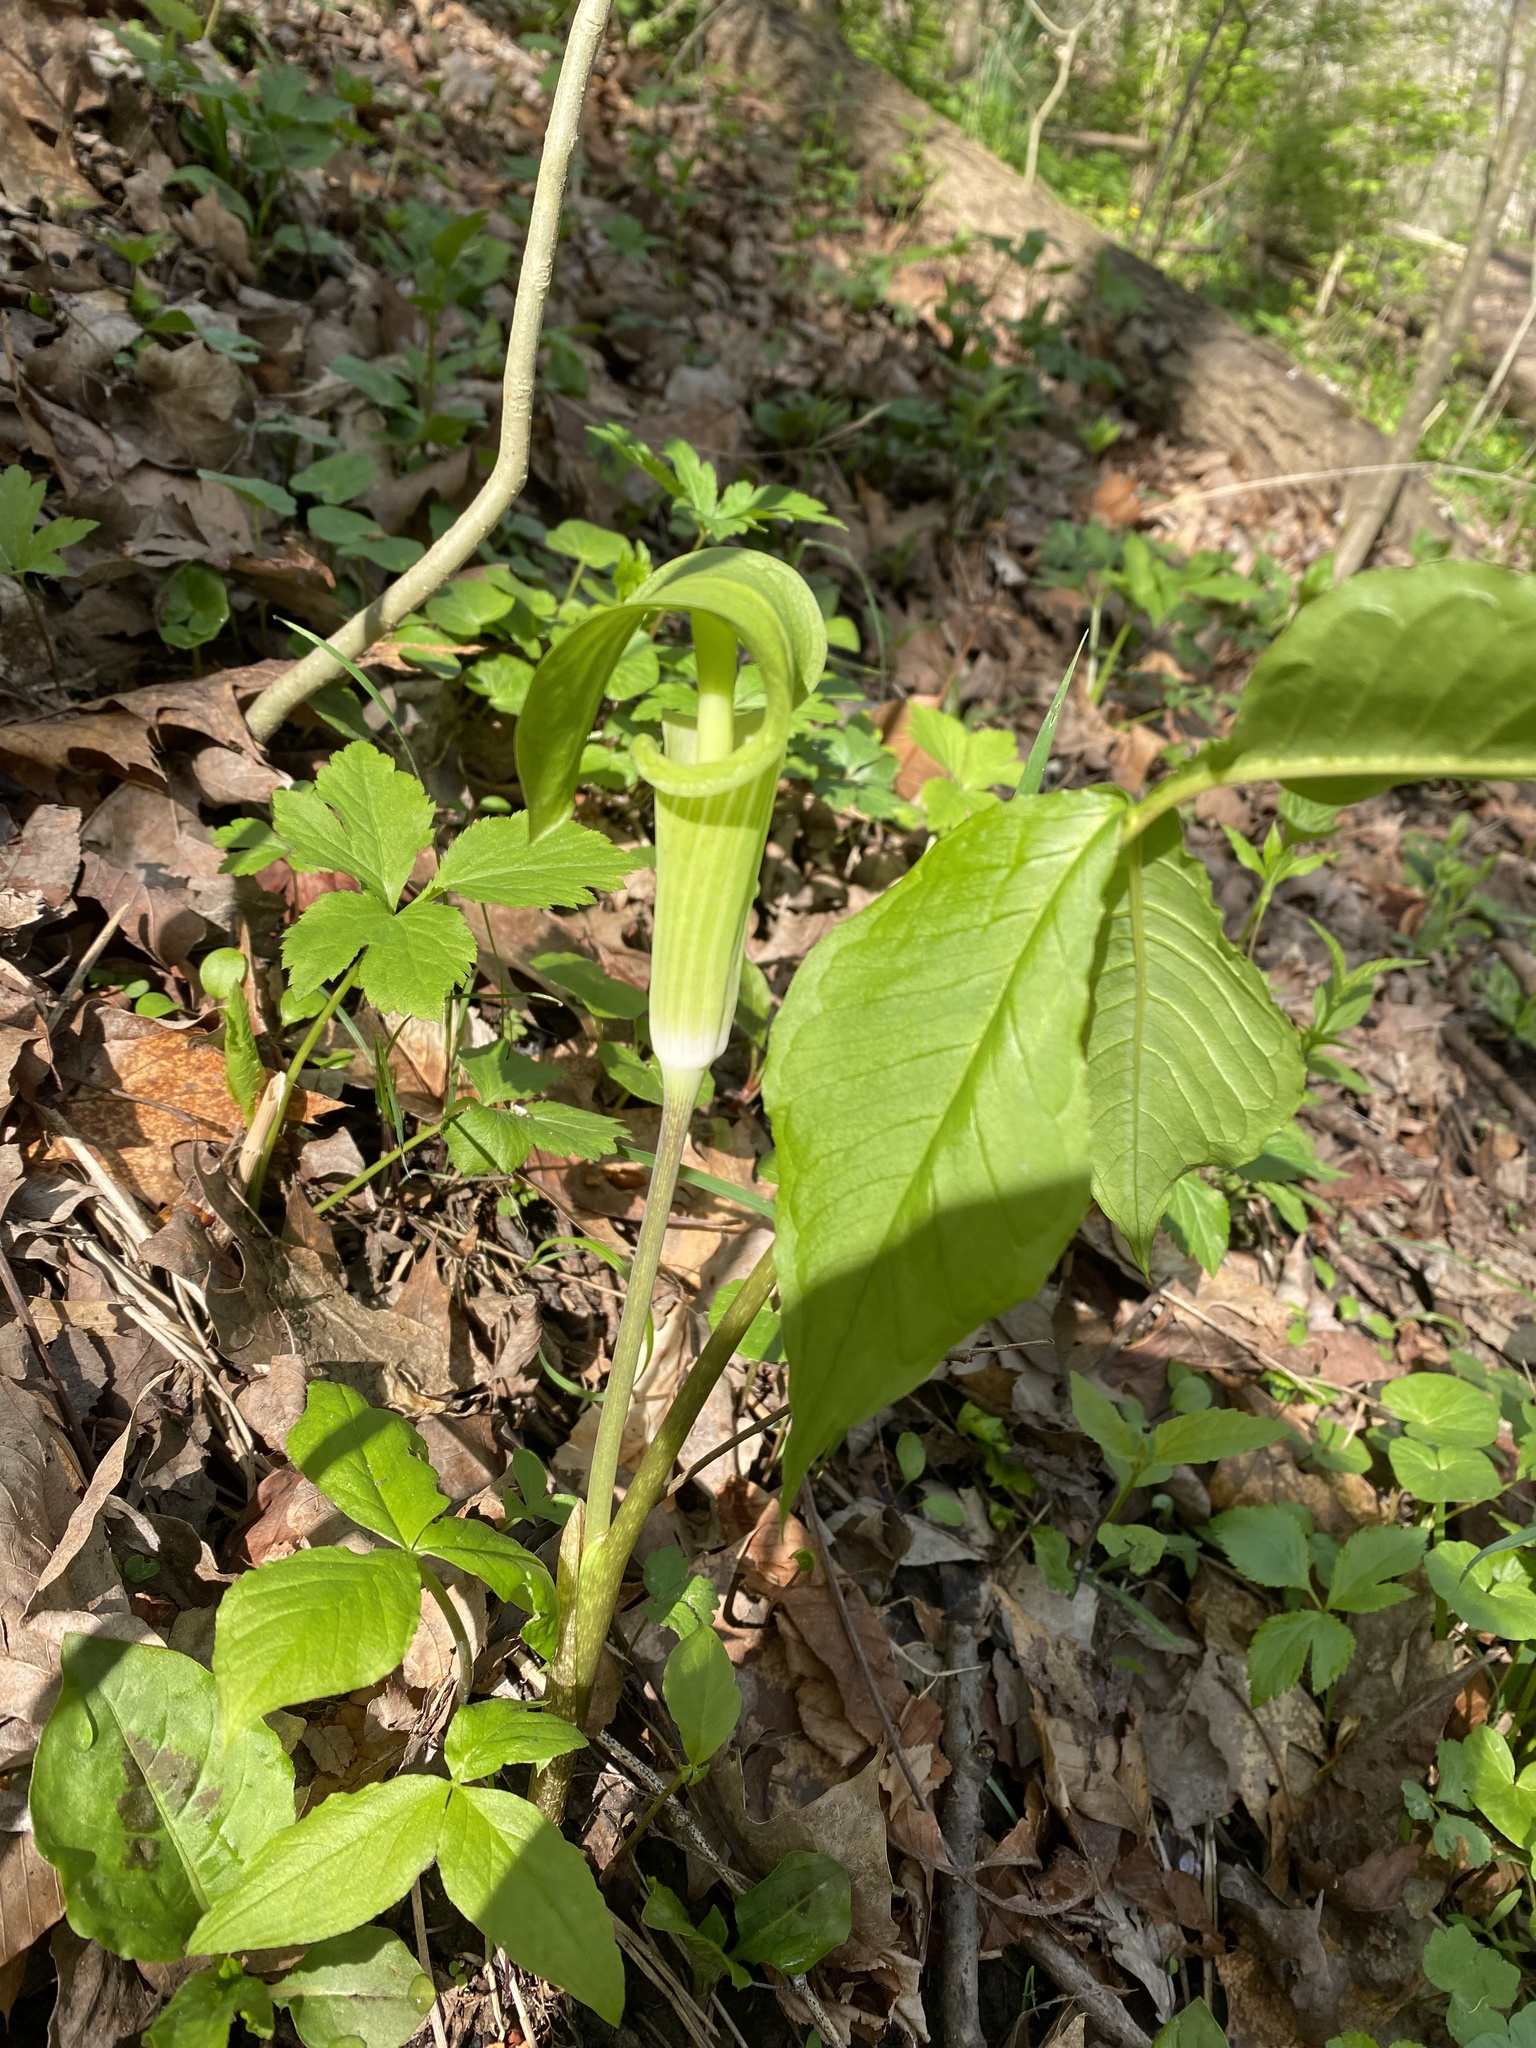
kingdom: Plantae
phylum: Tracheophyta
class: Liliopsida
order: Alismatales
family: Araceae
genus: Arisaema
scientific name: Arisaema triphyllum
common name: Jack-in-the-pulpit
